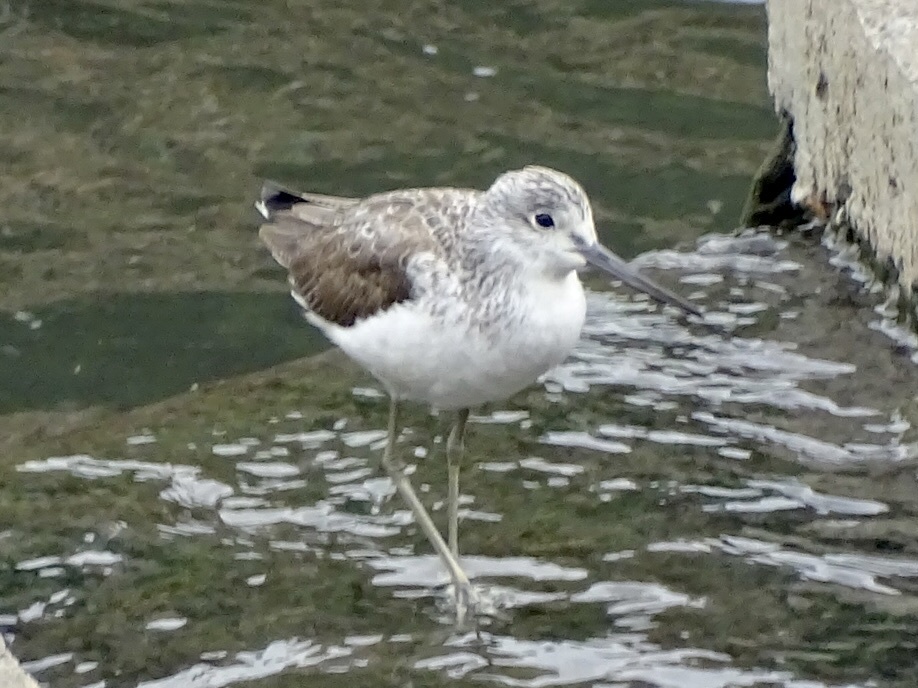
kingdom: Animalia
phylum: Chordata
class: Aves
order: Charadriiformes
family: Scolopacidae
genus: Tringa
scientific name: Tringa nebularia
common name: Common greenshank
